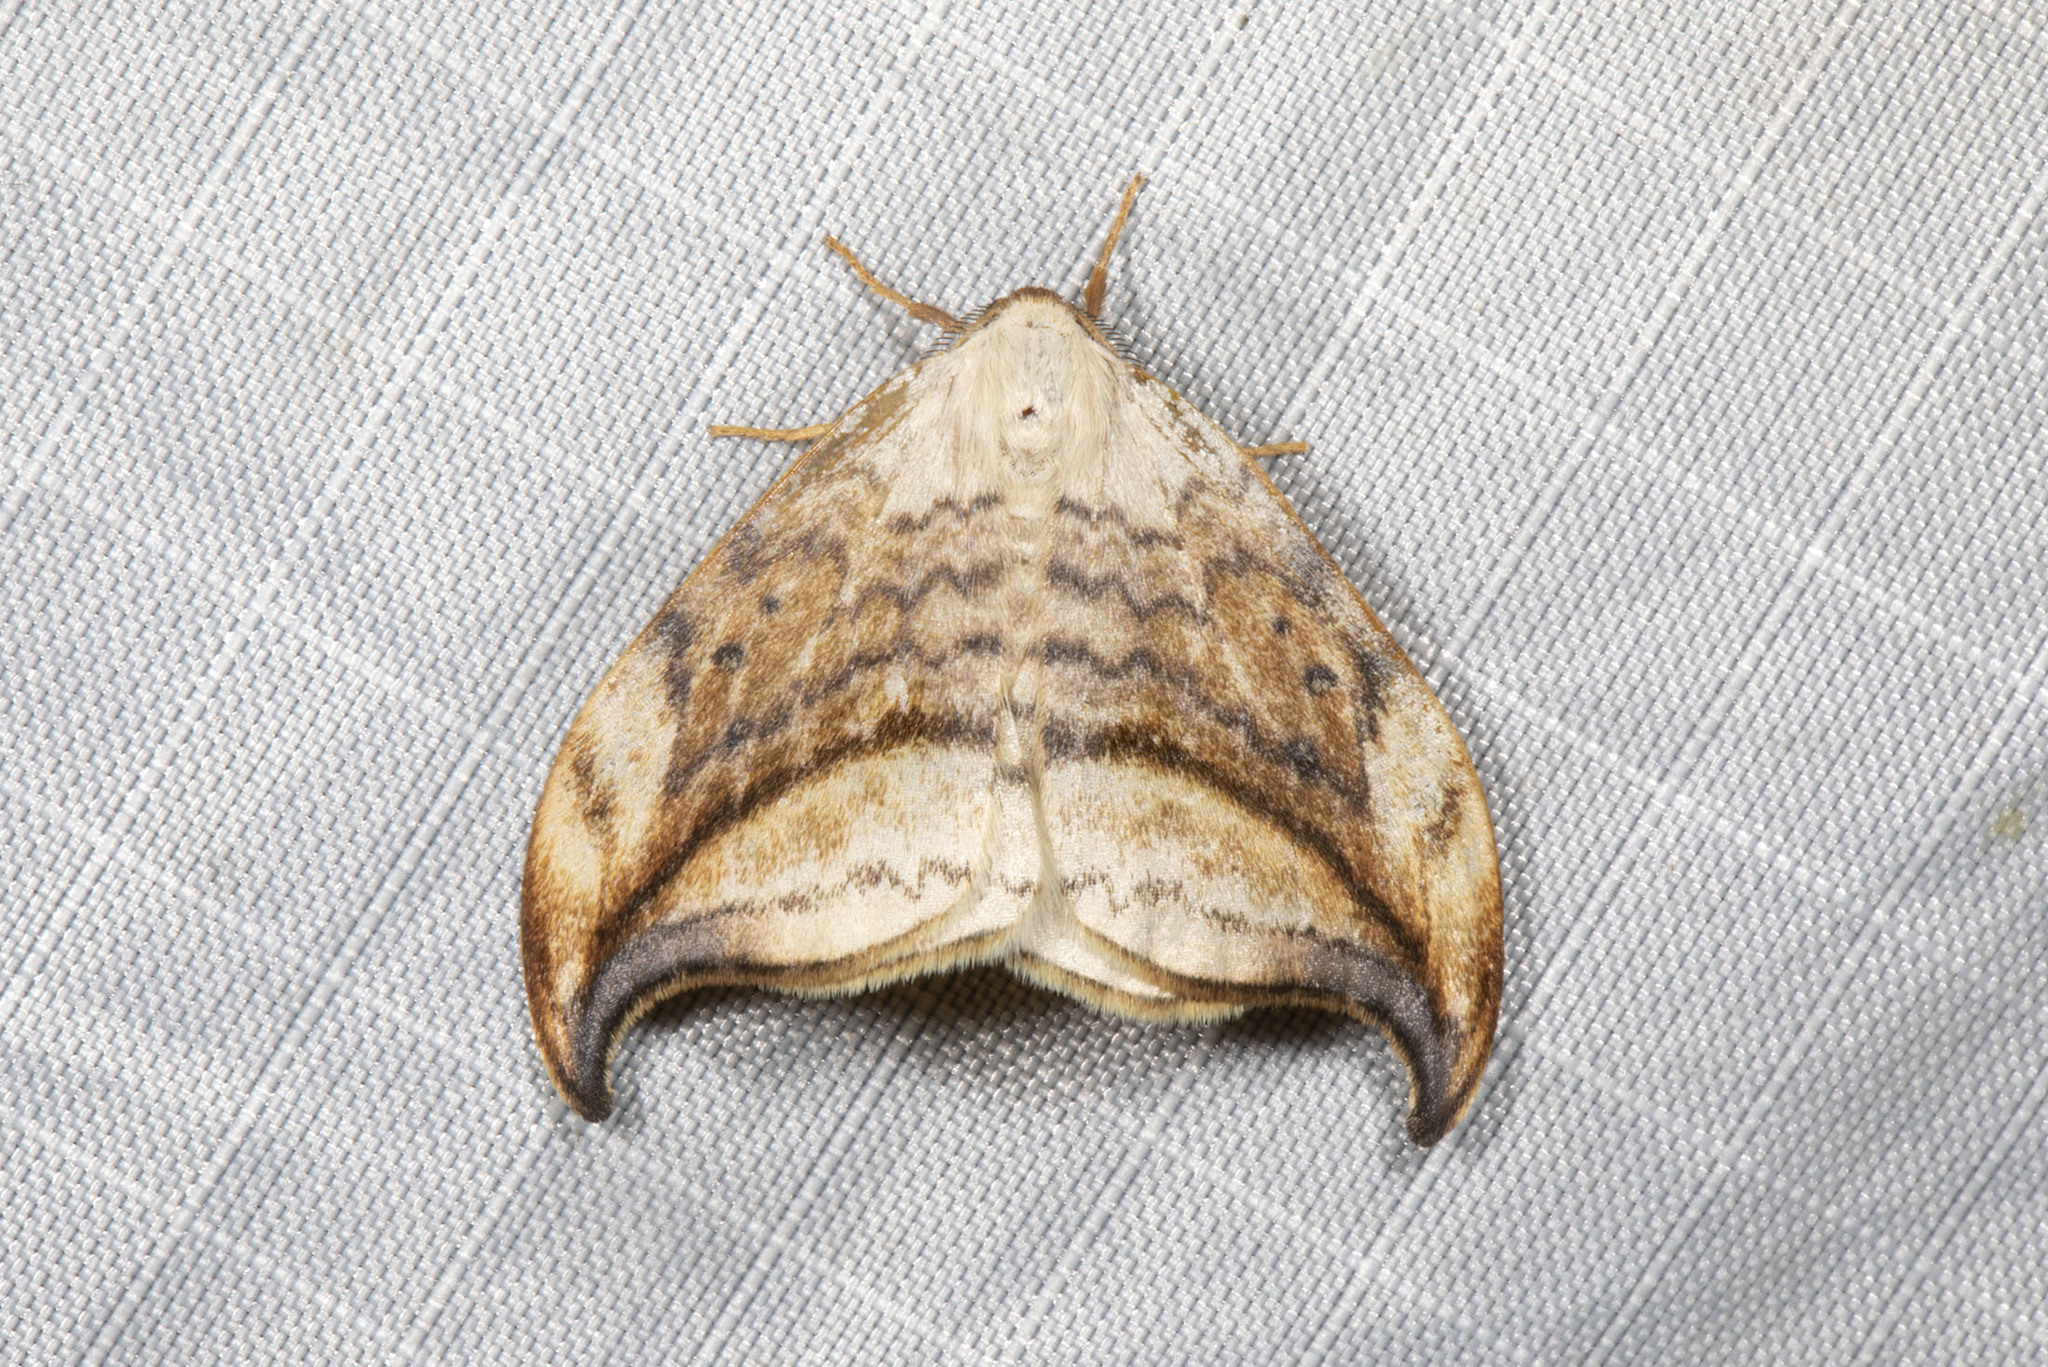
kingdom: Animalia
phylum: Arthropoda
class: Insecta
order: Lepidoptera
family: Drepanidae
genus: Drepana
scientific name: Drepana arcuata
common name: Arched hooktip moth
